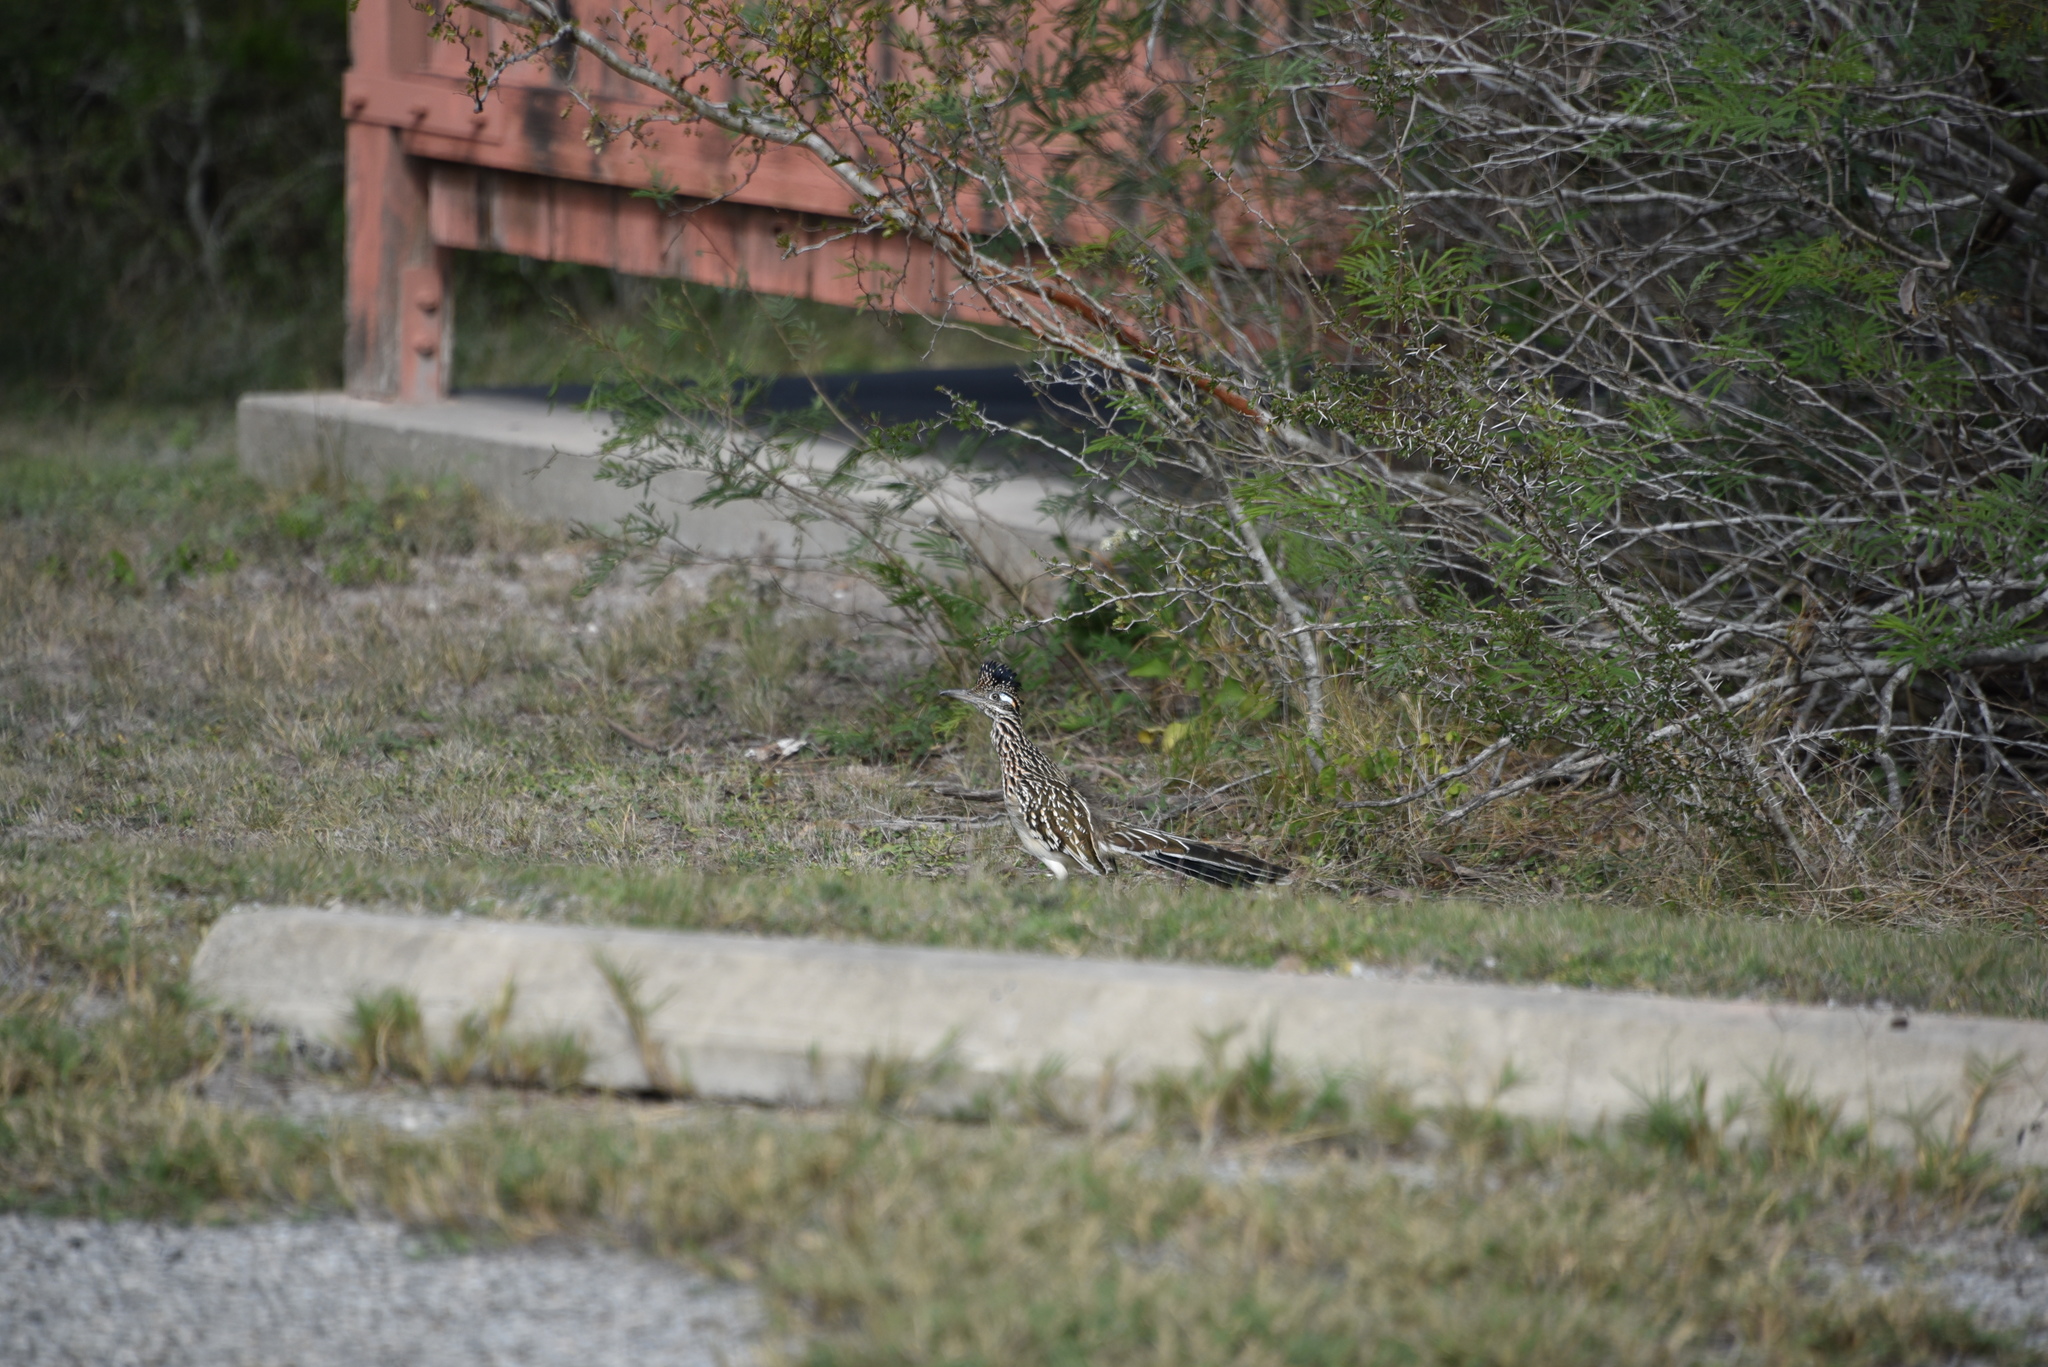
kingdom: Animalia
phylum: Chordata
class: Aves
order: Cuculiformes
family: Cuculidae
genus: Geococcyx
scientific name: Geococcyx californianus
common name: Greater roadrunner
